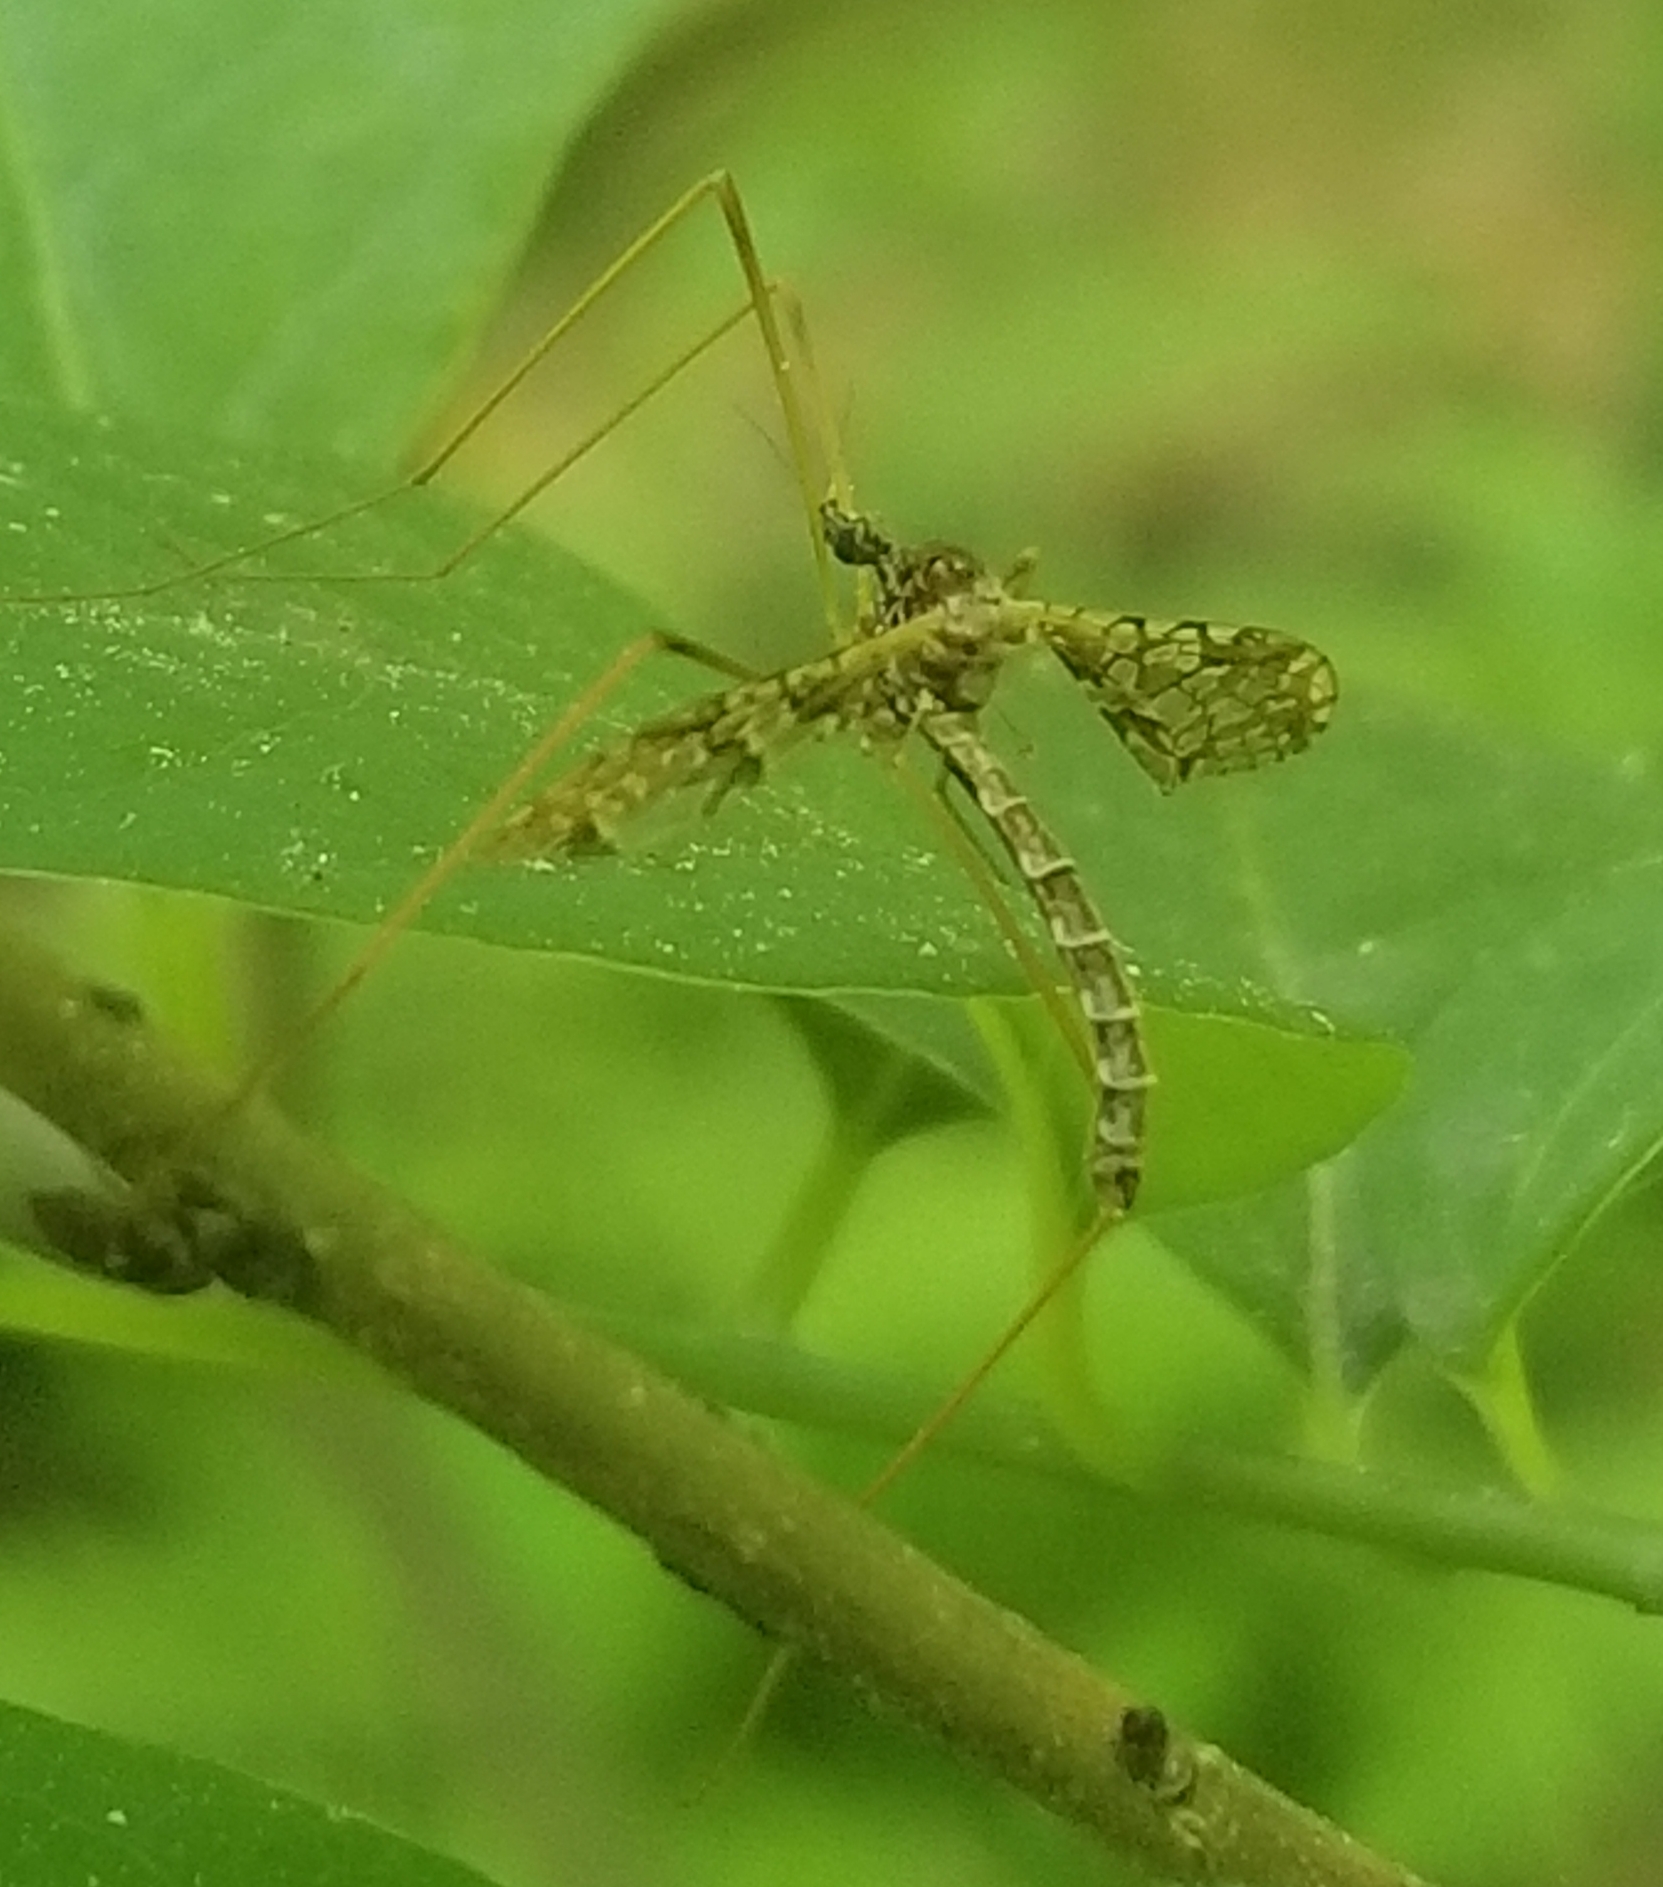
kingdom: Animalia
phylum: Arthropoda
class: Insecta
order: Diptera
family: Limoniidae
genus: Epiphragma
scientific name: Epiphragma solatrix
